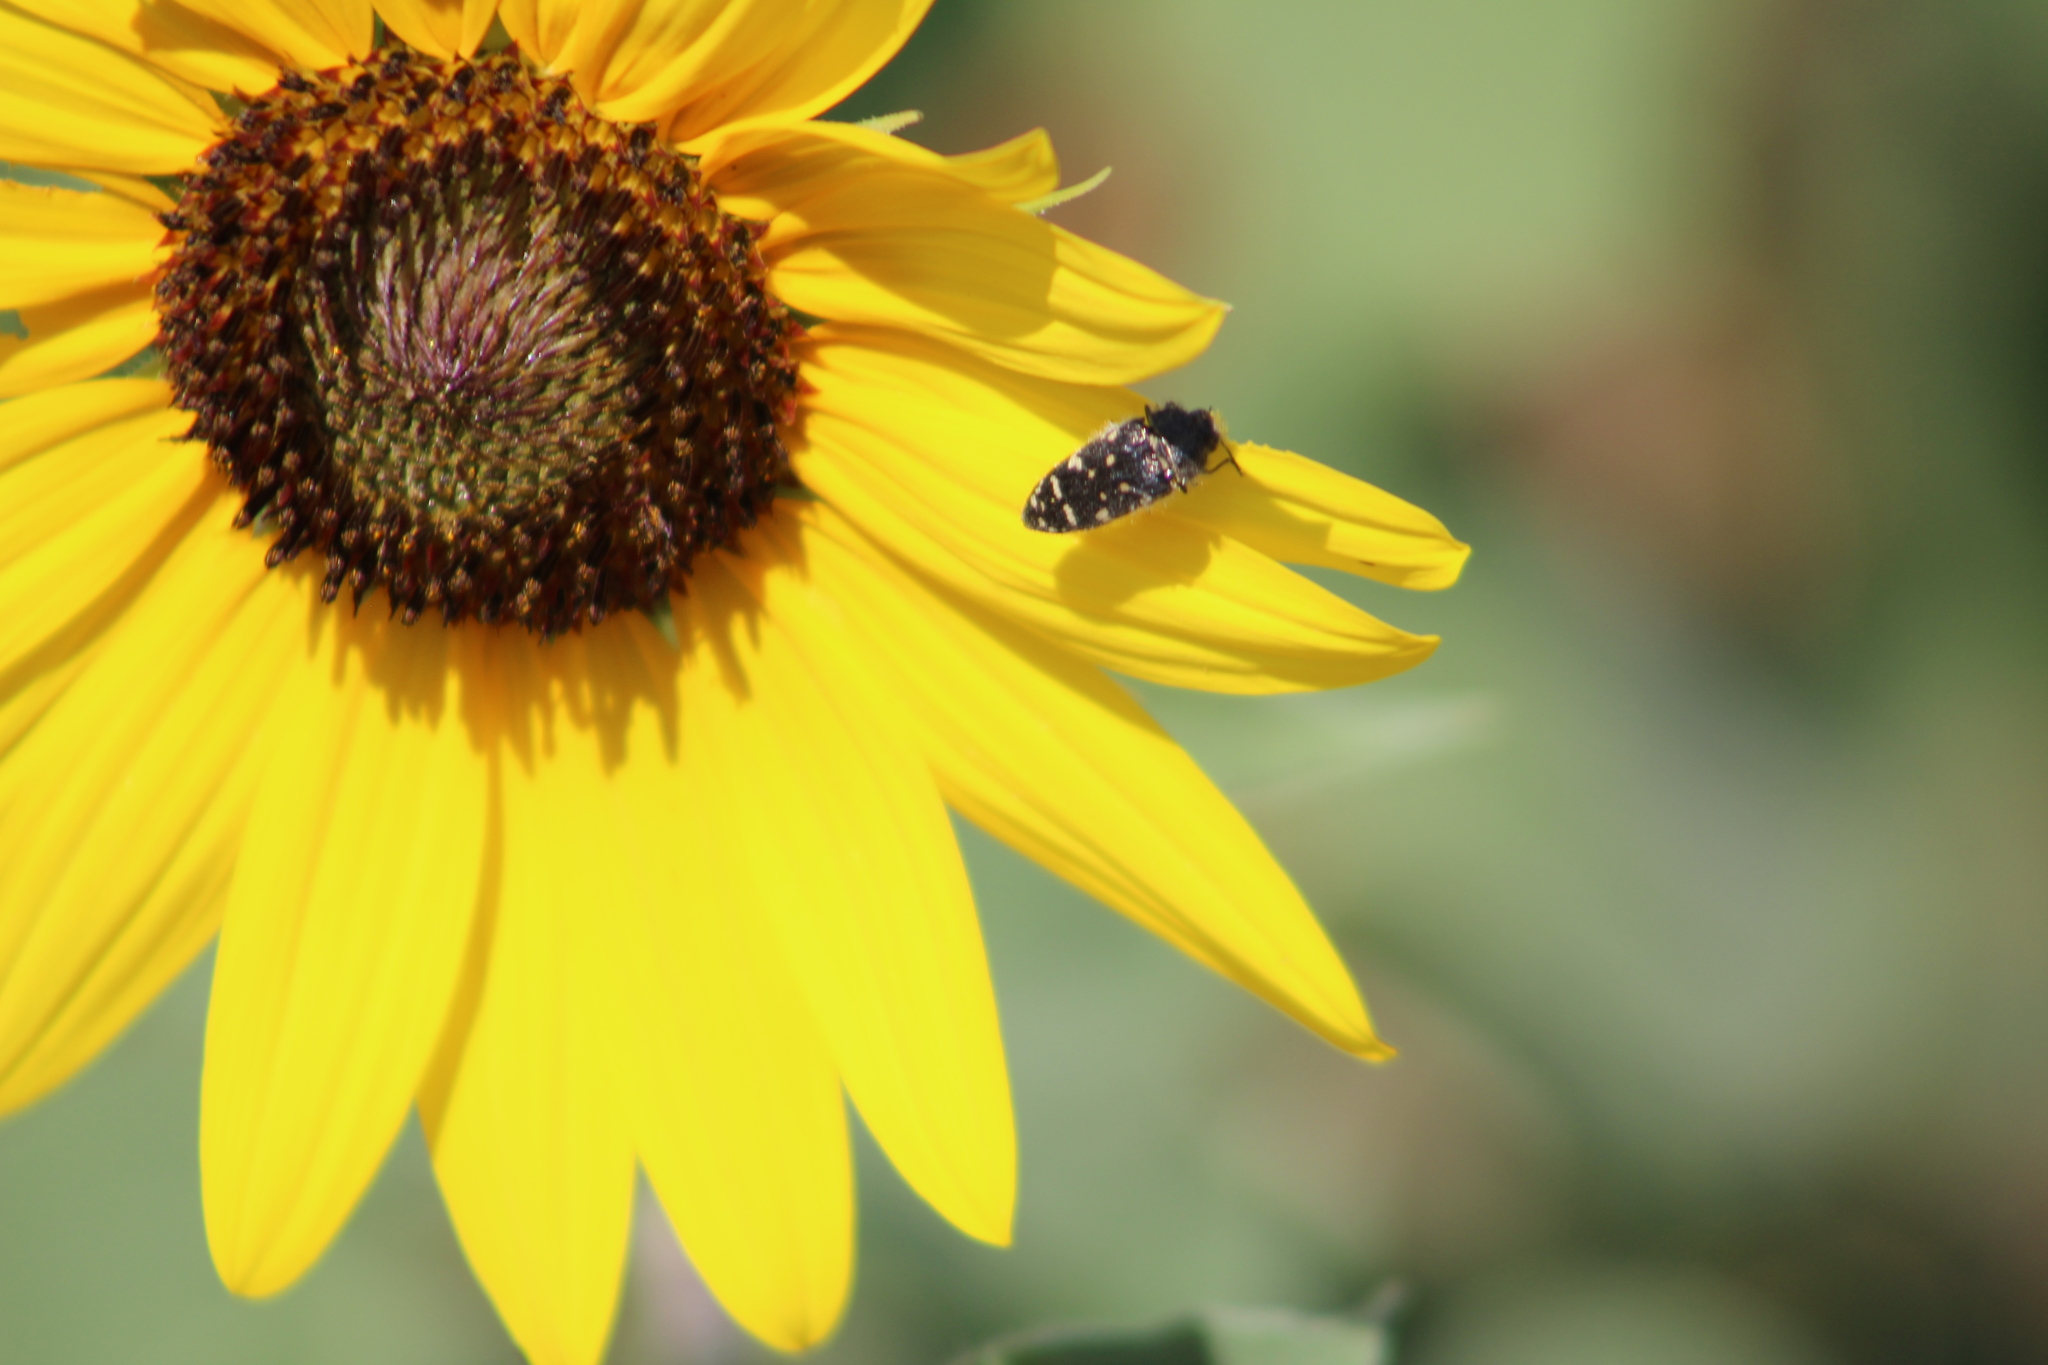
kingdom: Animalia
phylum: Arthropoda
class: Insecta
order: Coleoptera
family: Buprestidae
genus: Acmaeodera
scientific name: Acmaeodera rubronotata
